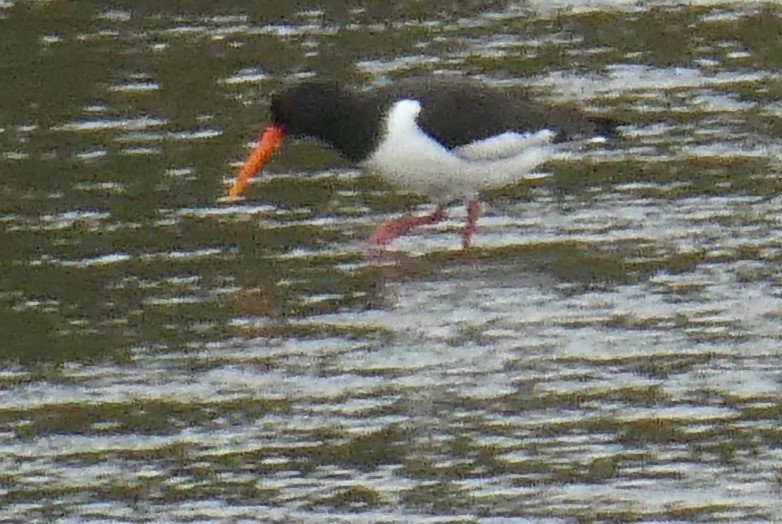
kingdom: Animalia
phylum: Chordata
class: Aves
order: Charadriiformes
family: Haematopodidae
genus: Haematopus
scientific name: Haematopus ostralegus
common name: Eurasian oystercatcher
